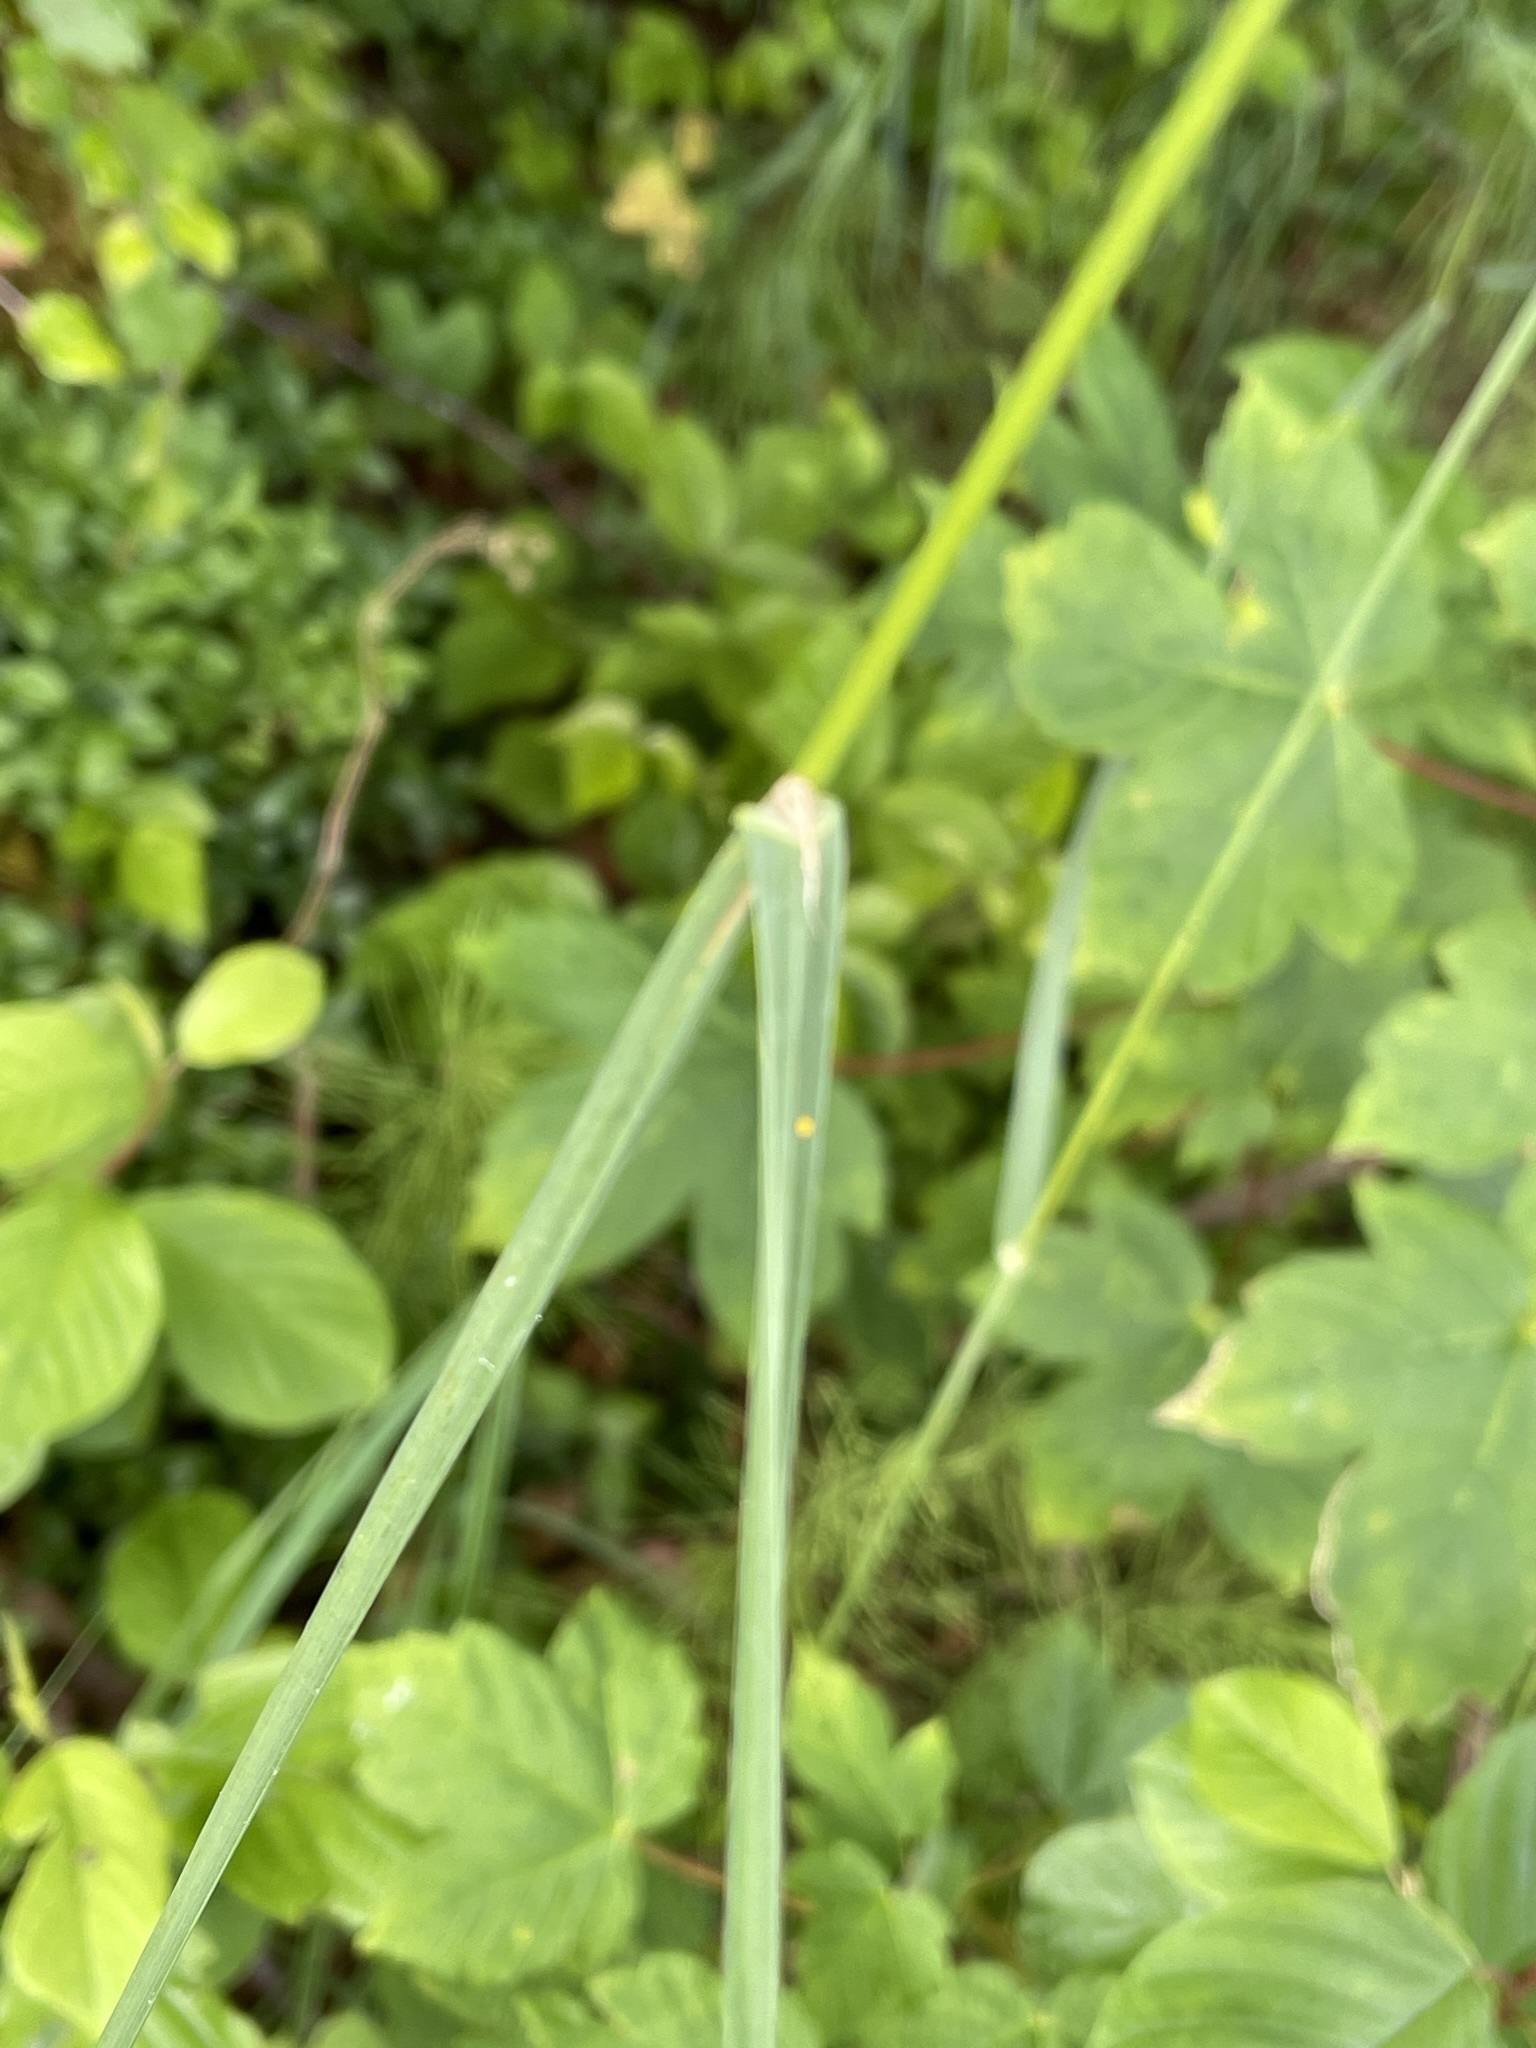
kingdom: Plantae
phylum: Tracheophyta
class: Liliopsida
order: Poales
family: Poaceae
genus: Dactylis
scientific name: Dactylis glomerata
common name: Orchardgrass
